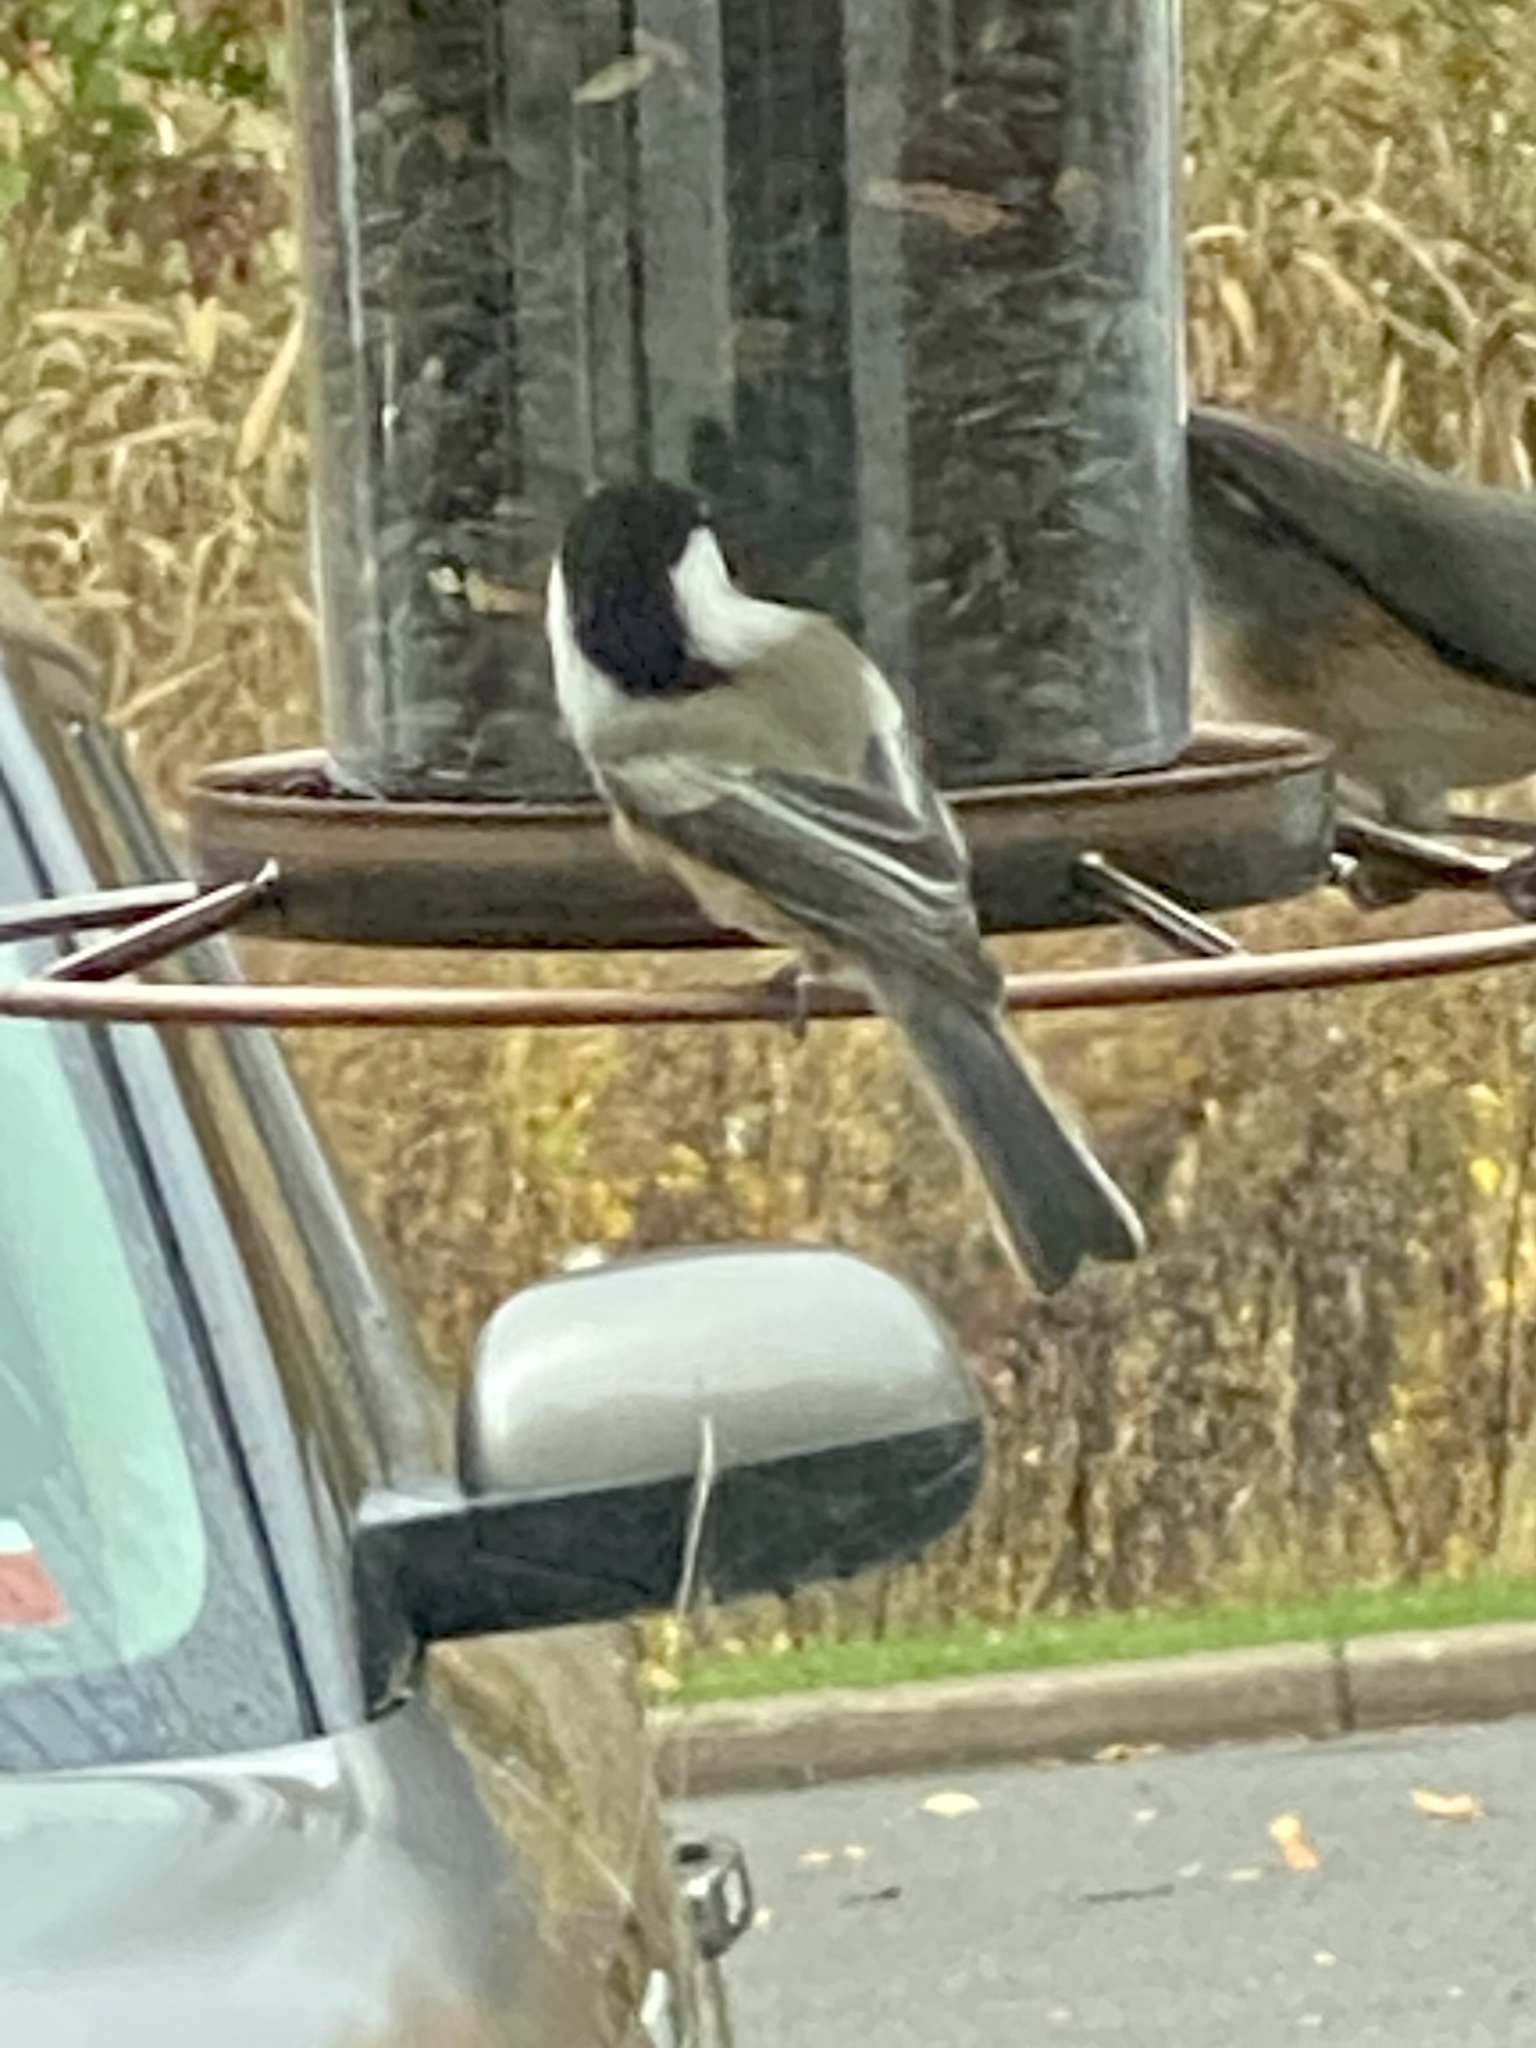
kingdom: Animalia
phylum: Chordata
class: Aves
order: Passeriformes
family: Paridae
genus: Poecile
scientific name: Poecile atricapillus
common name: Black-capped chickadee
